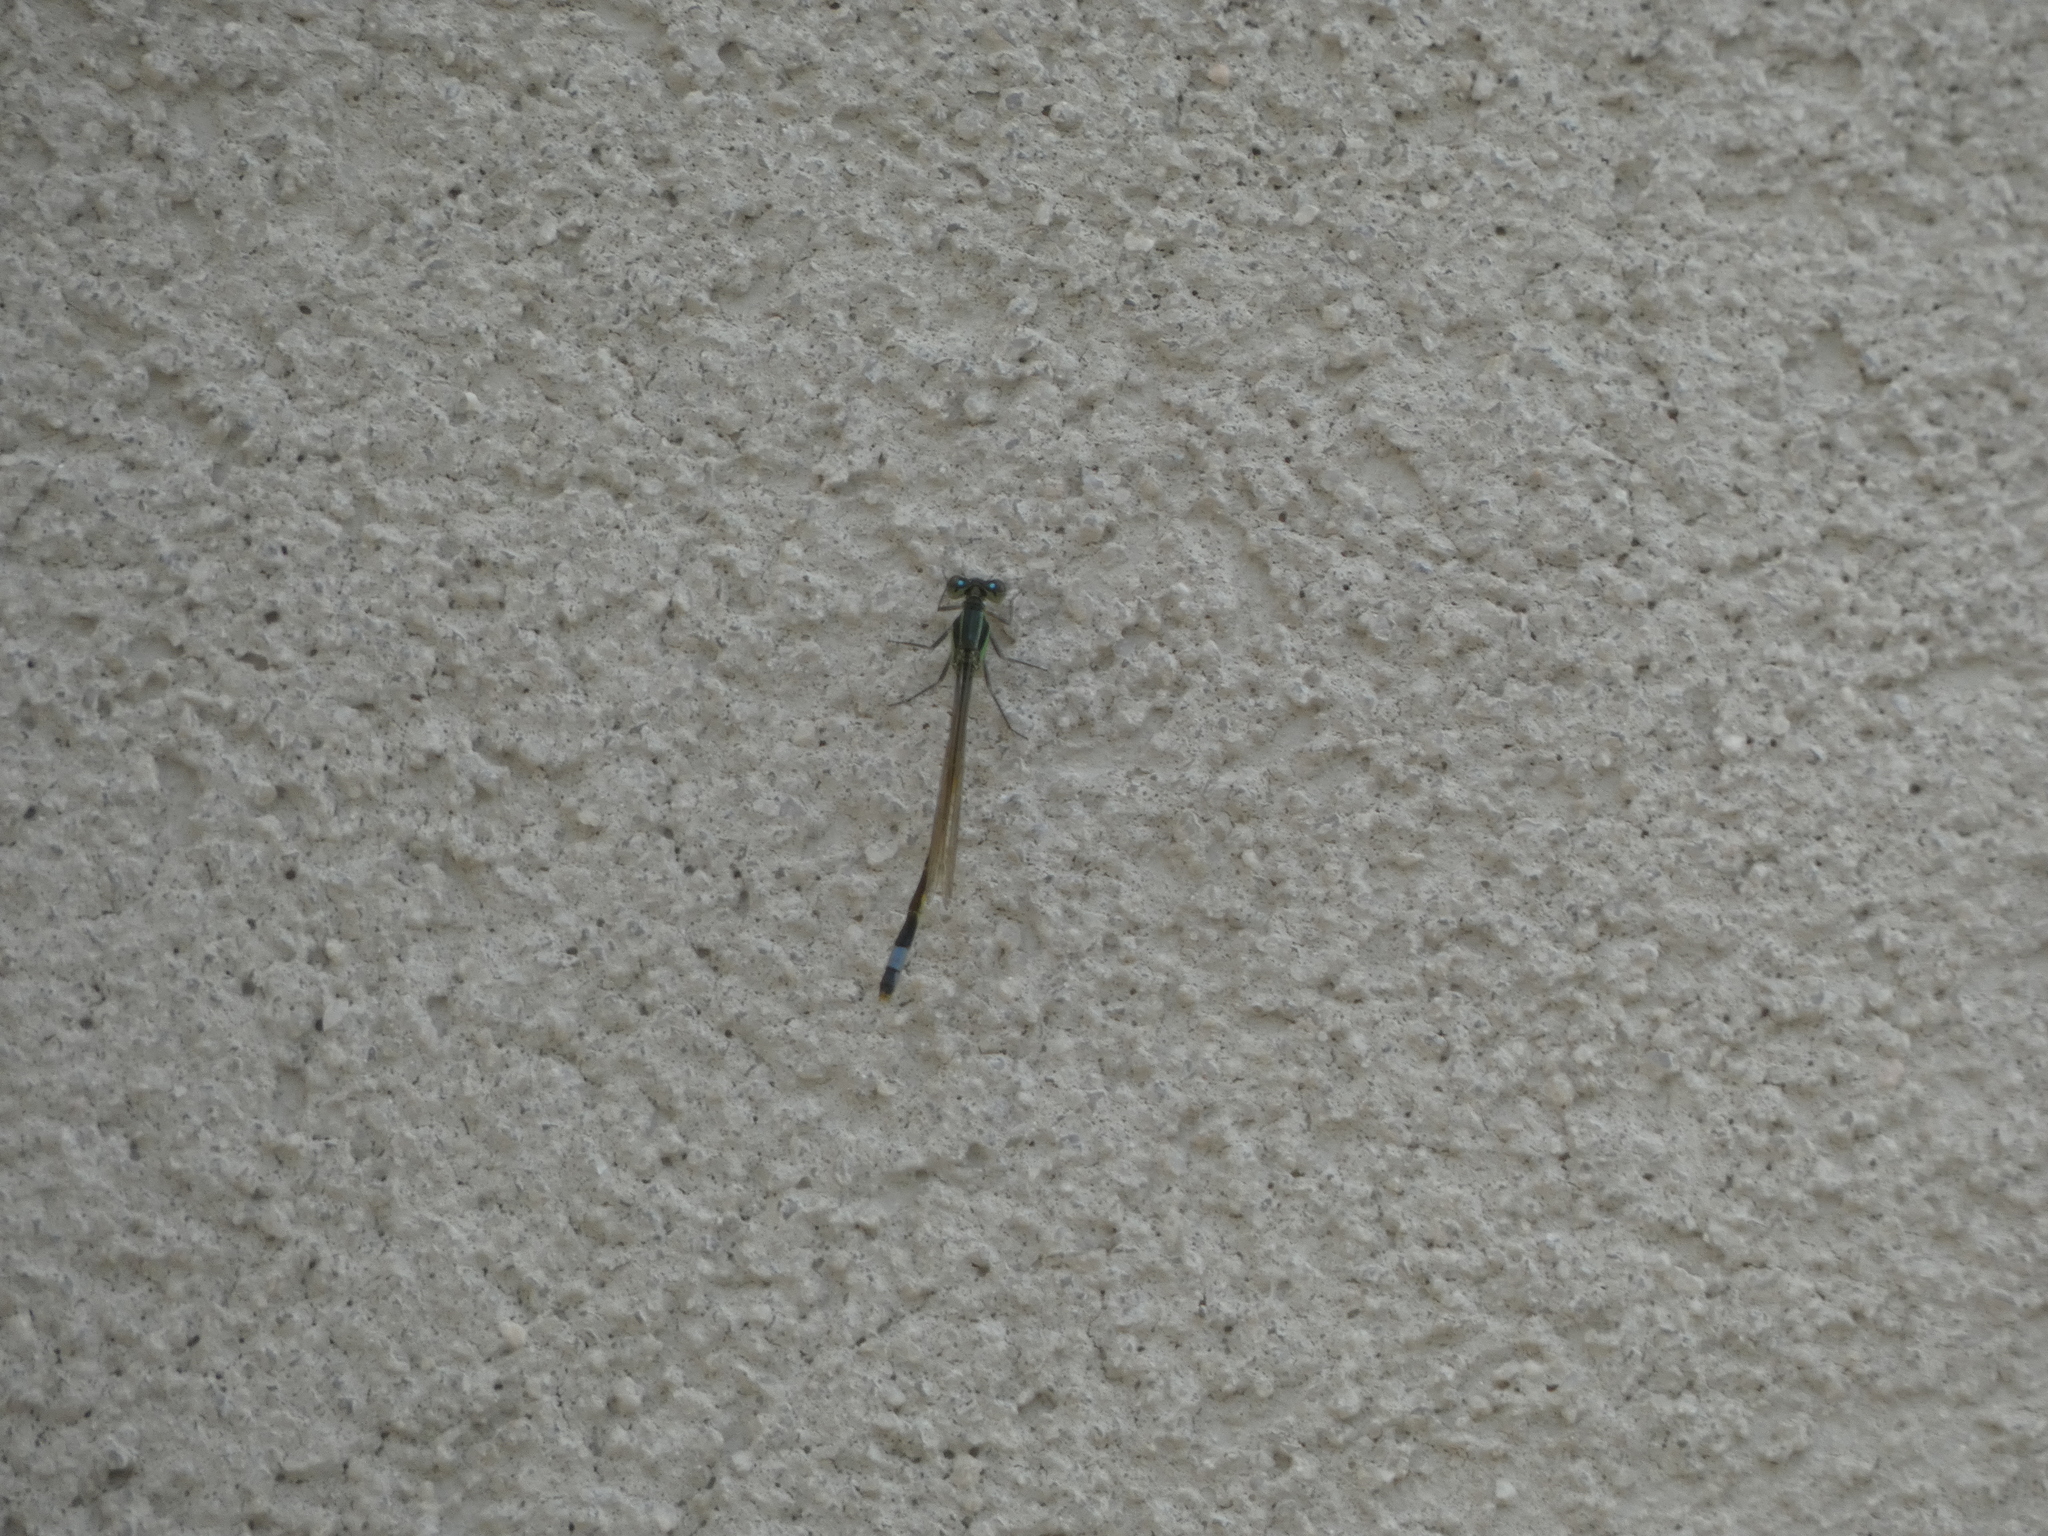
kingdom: Animalia
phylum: Arthropoda
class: Insecta
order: Odonata
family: Coenagrionidae
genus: Ischnura
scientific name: Ischnura ramburii
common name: Rambur's forktail
